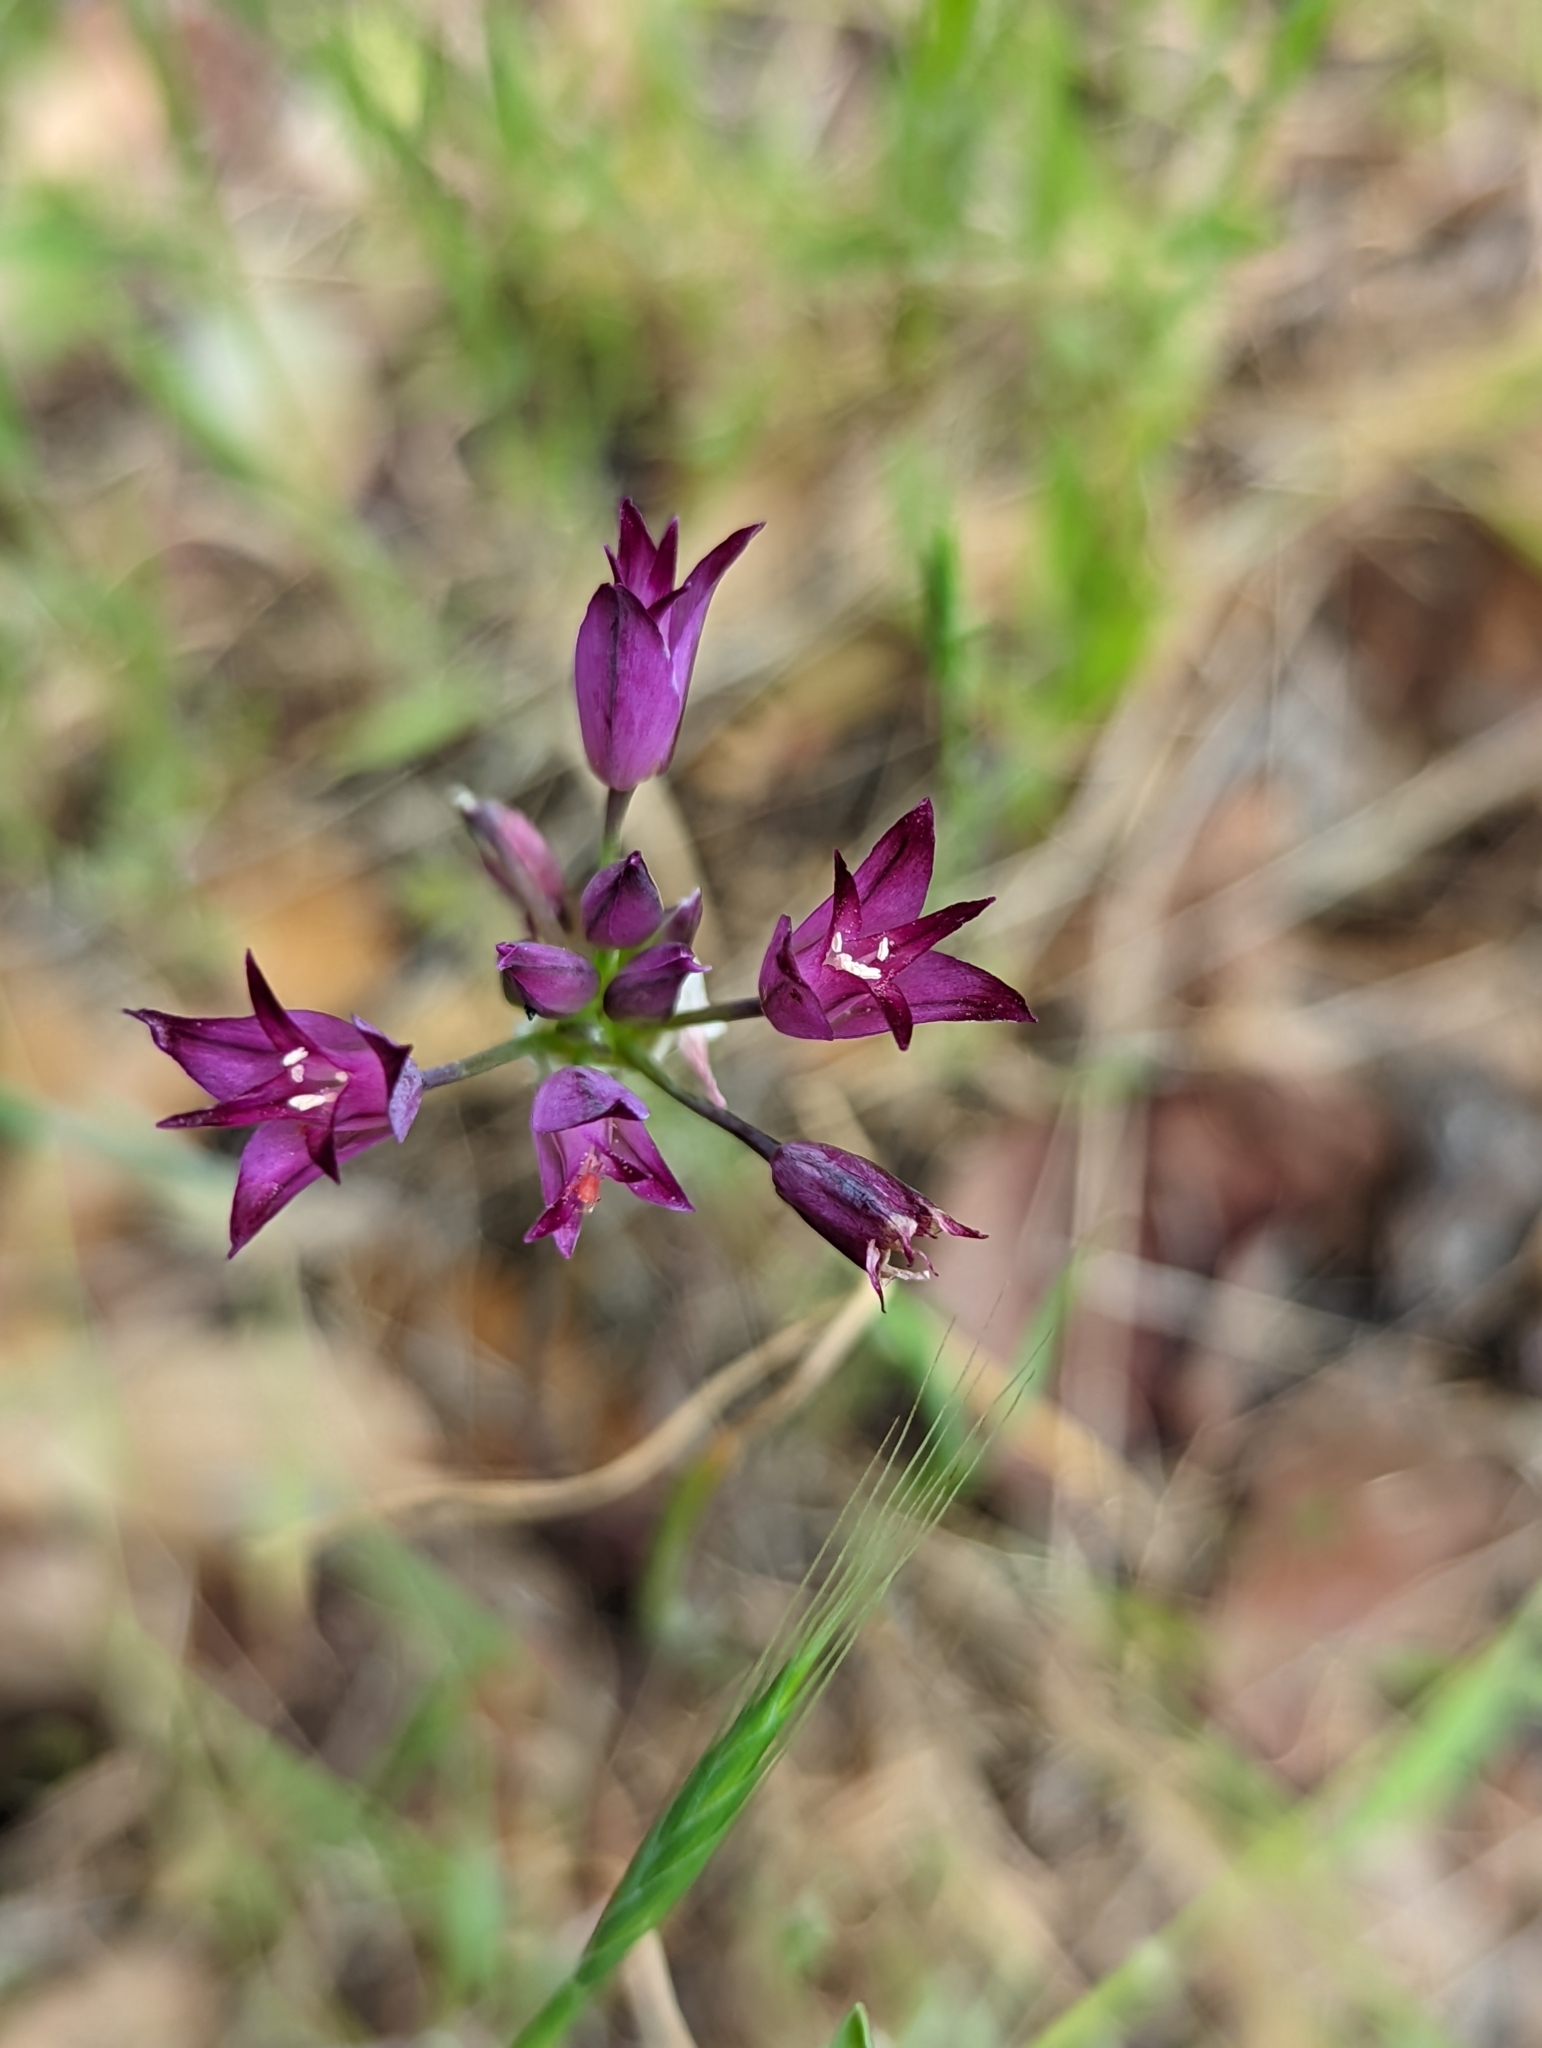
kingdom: Plantae
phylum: Tracheophyta
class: Liliopsida
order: Asparagales
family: Amaryllidaceae
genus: Allium
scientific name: Allium peninsulare
